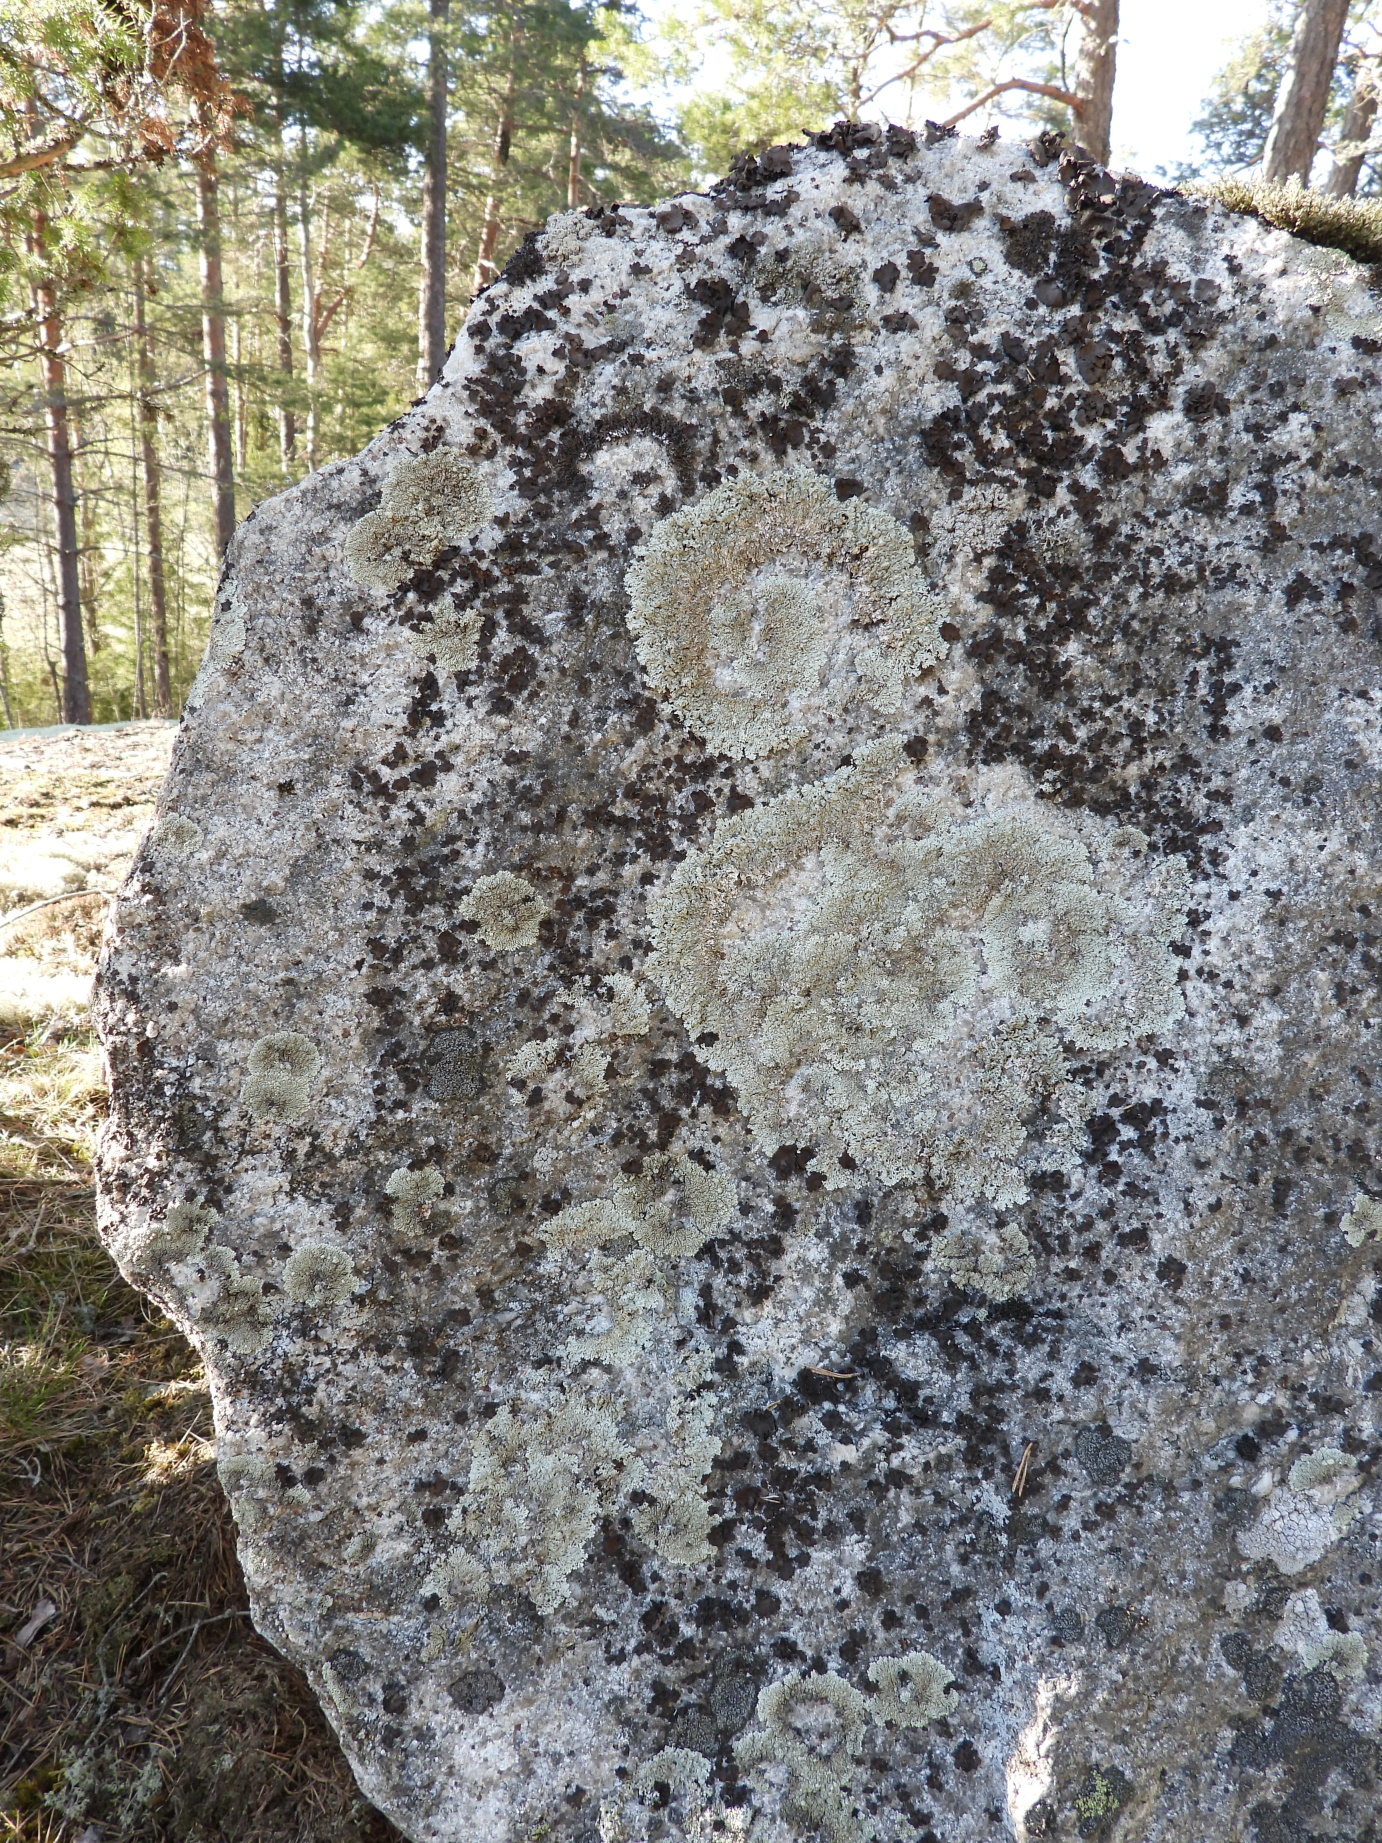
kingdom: Fungi
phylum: Ascomycota
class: Lecanoromycetes
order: Lecanorales
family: Parmeliaceae
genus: Arctoparmelia
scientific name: Arctoparmelia incurva
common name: Bent ring lichen
